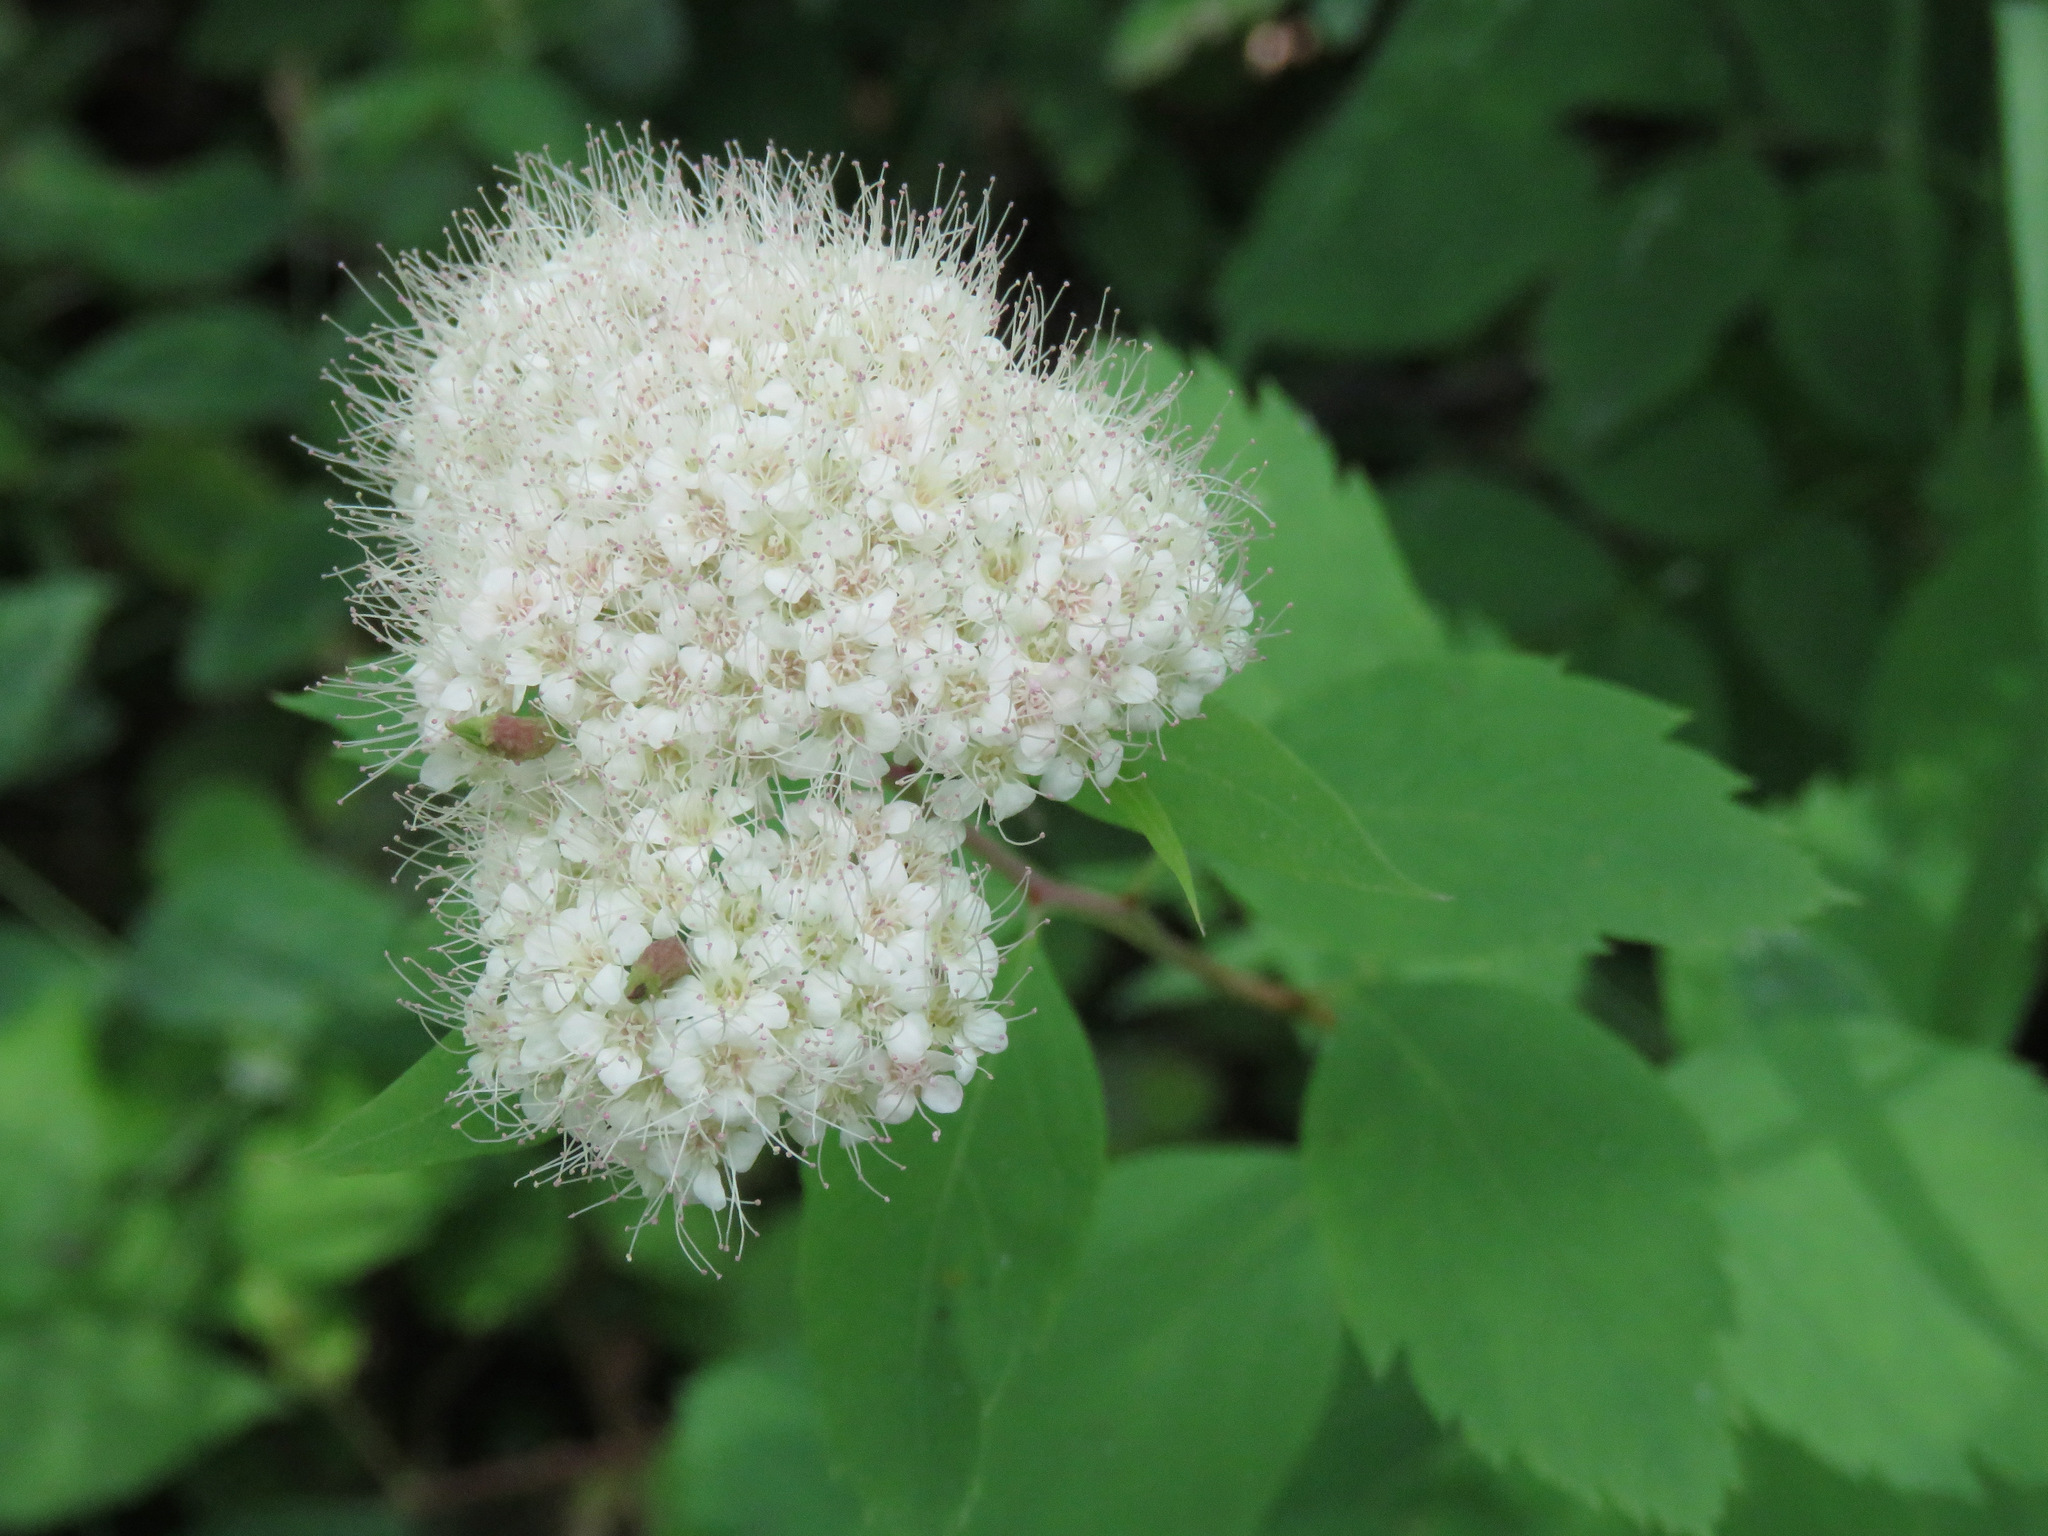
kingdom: Plantae
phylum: Tracheophyta
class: Magnoliopsida
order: Rosales
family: Rosaceae
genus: Spiraea
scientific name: Spiraea lucida
